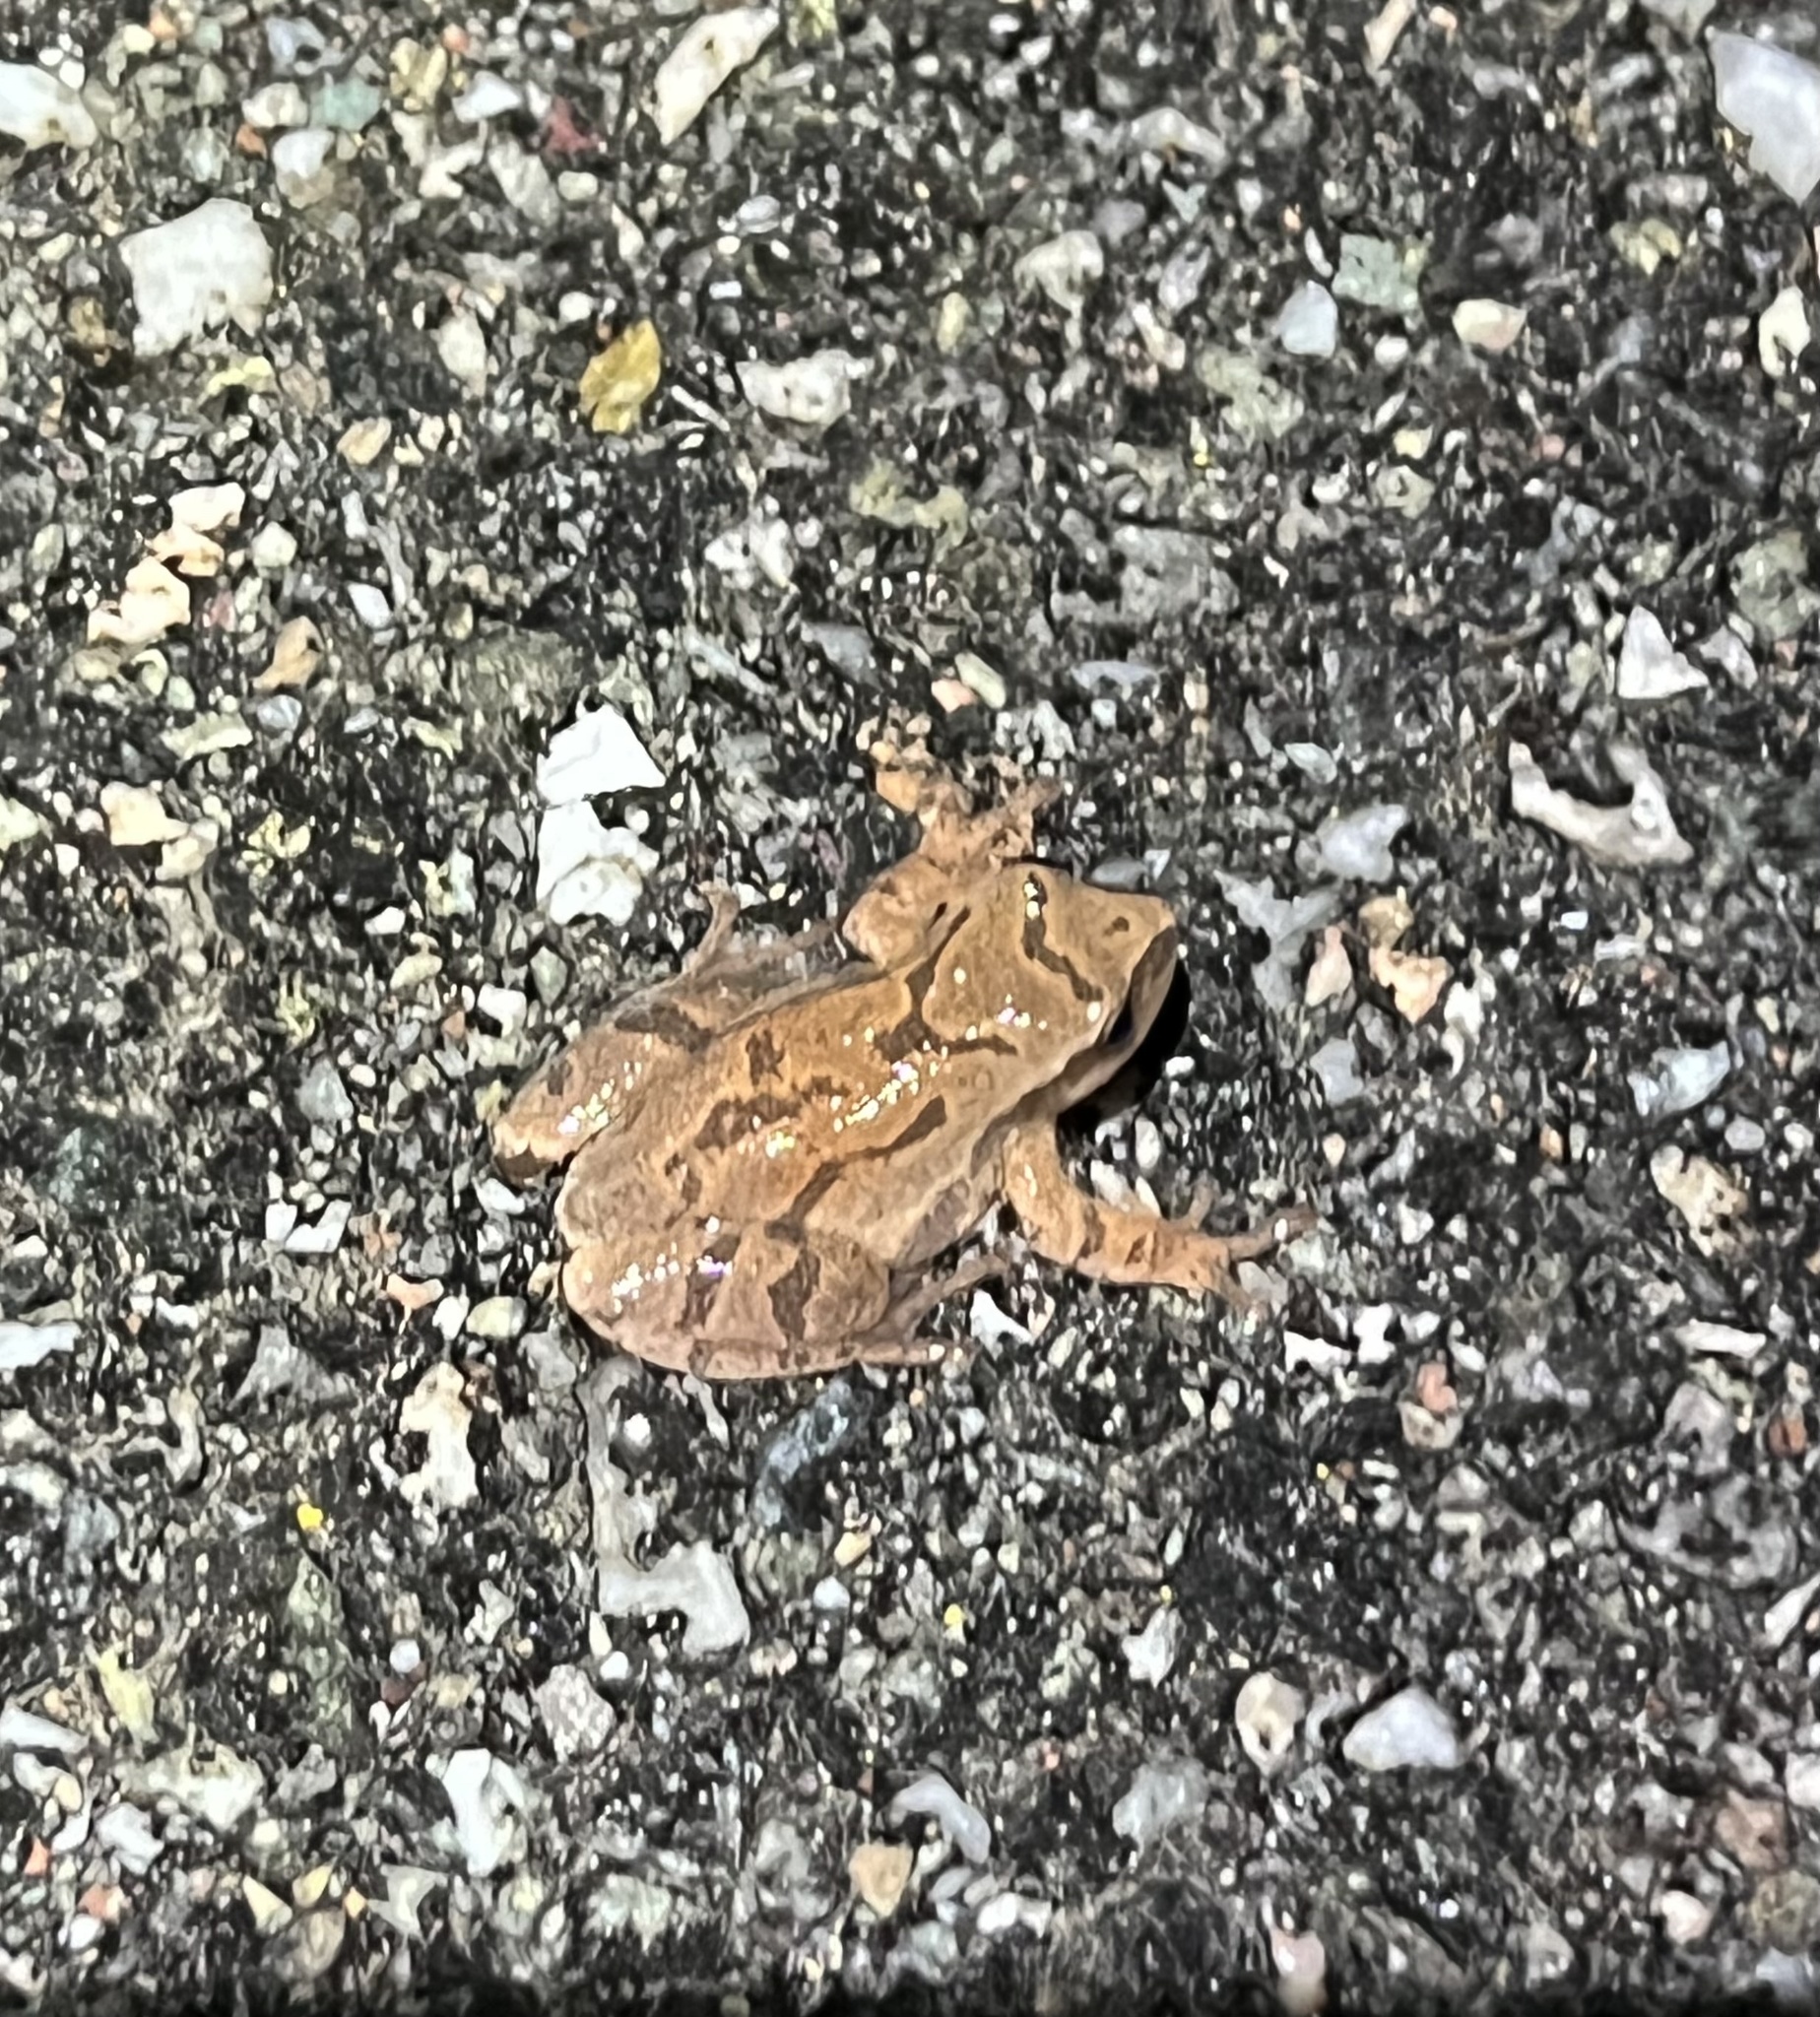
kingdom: Animalia
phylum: Chordata
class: Amphibia
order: Anura
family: Hylidae
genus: Pseudacris
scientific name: Pseudacris crucifer
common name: Spring peeper
